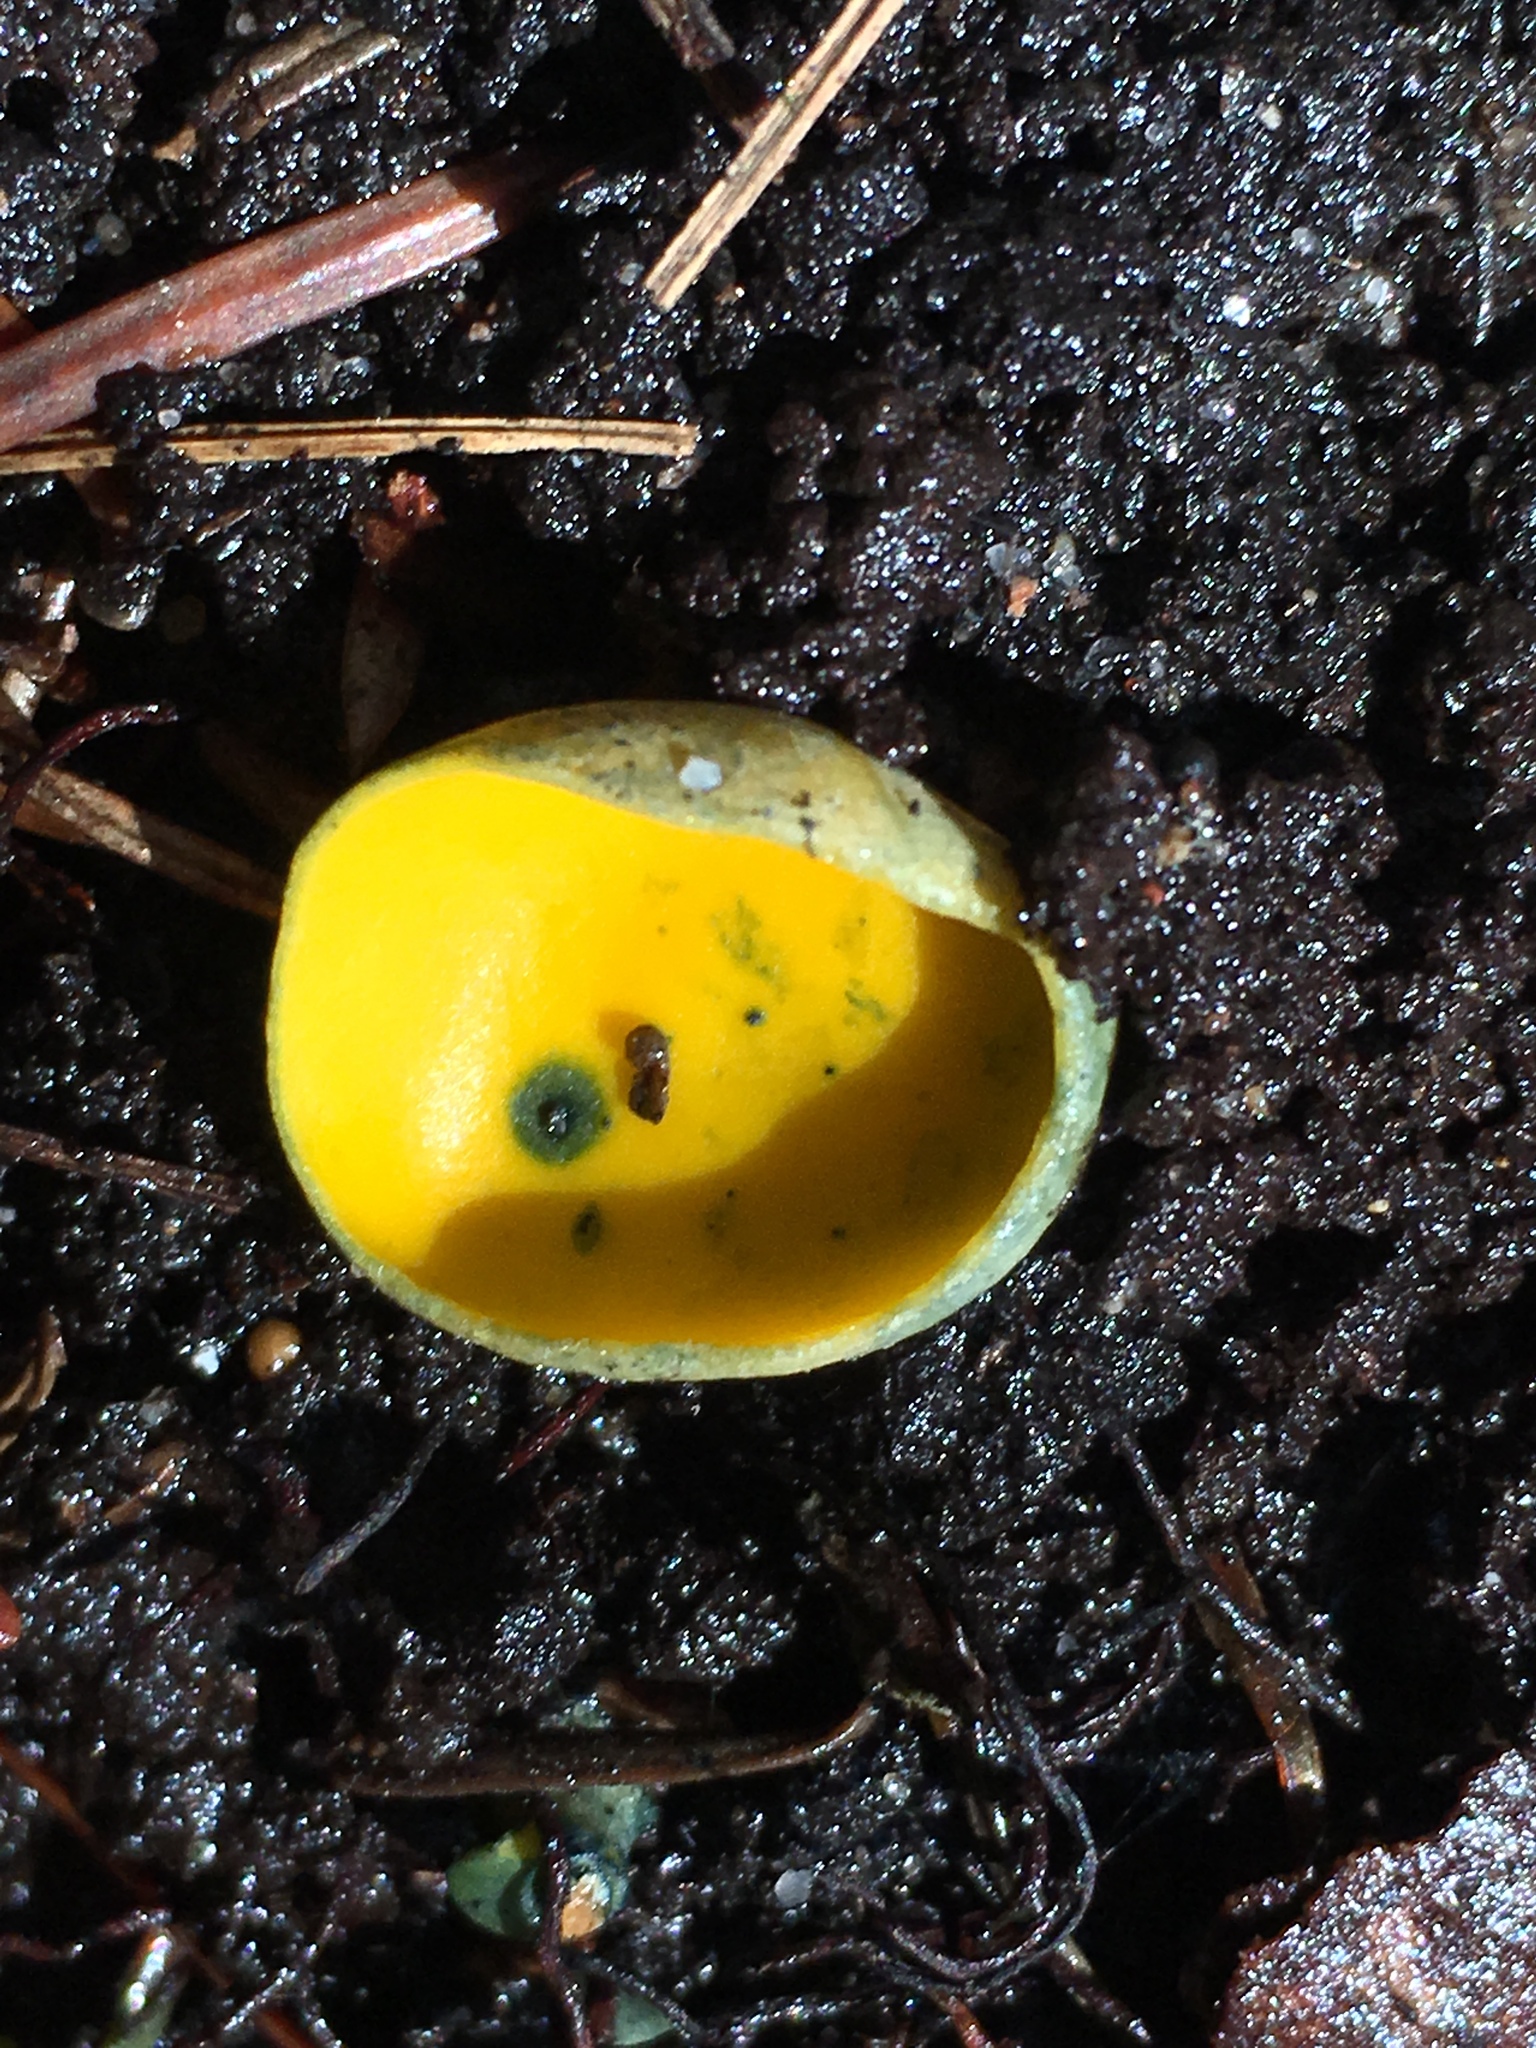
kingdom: Fungi
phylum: Ascomycota
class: Pezizomycetes
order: Pezizales
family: Caloscyphaceae
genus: Caloscypha
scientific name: Caloscypha fulgens
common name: Golden cup
